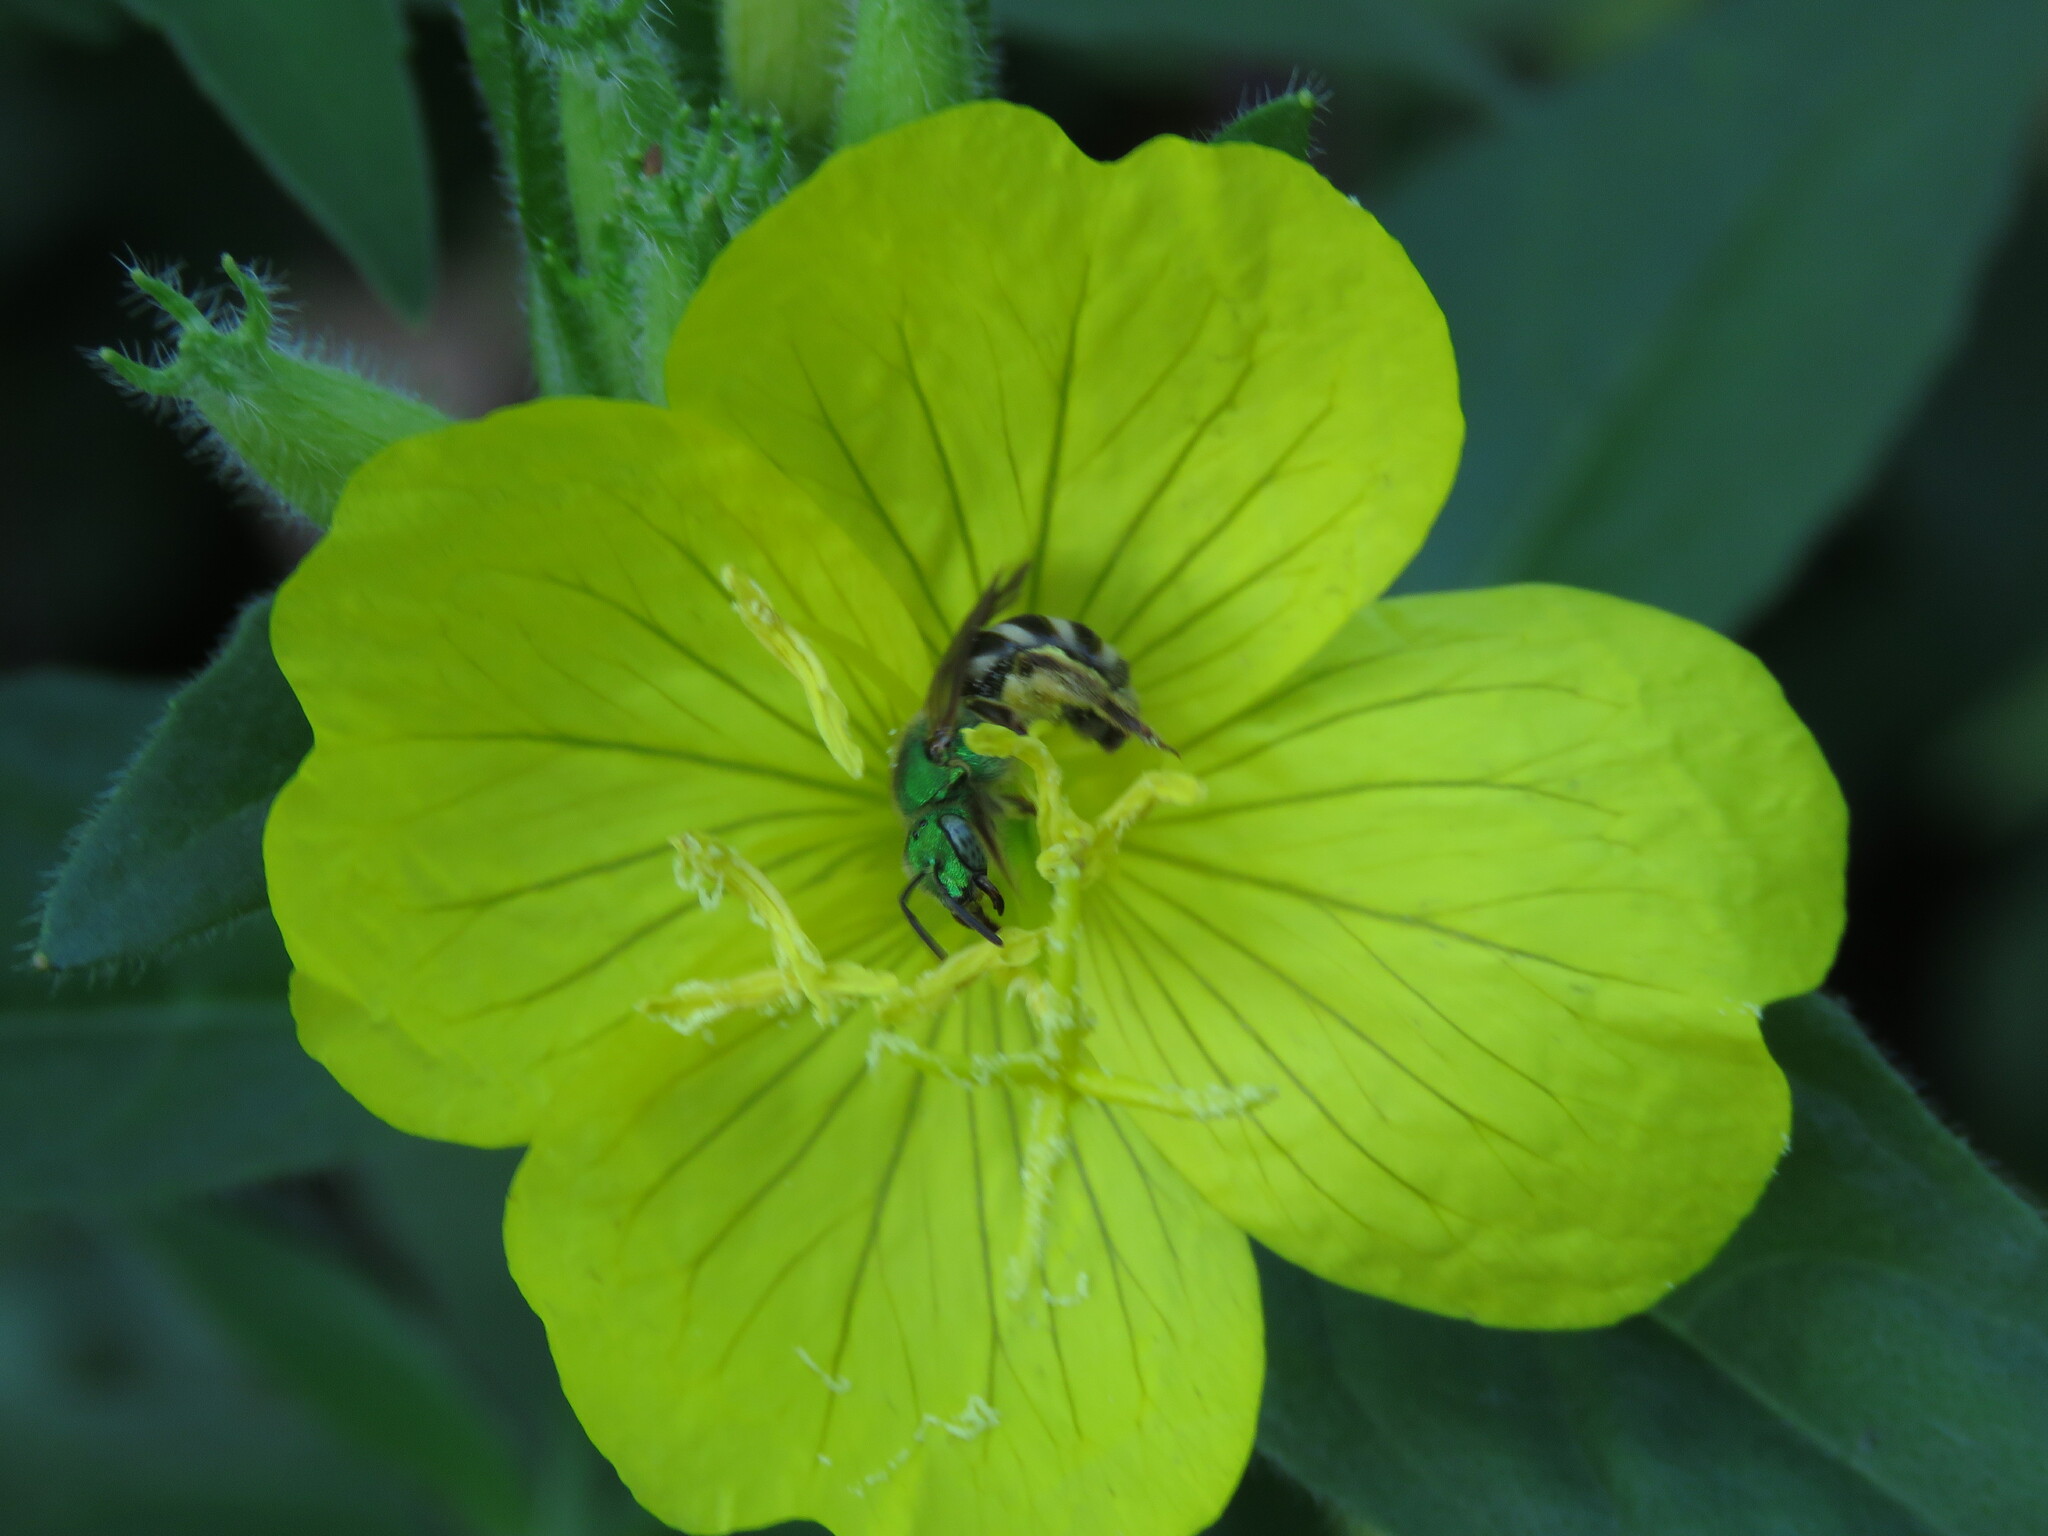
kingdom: Animalia
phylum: Arthropoda
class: Insecta
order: Hymenoptera
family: Halictidae
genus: Agapostemon
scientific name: Agapostemon virescens
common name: Bicolored striped sweat bee
